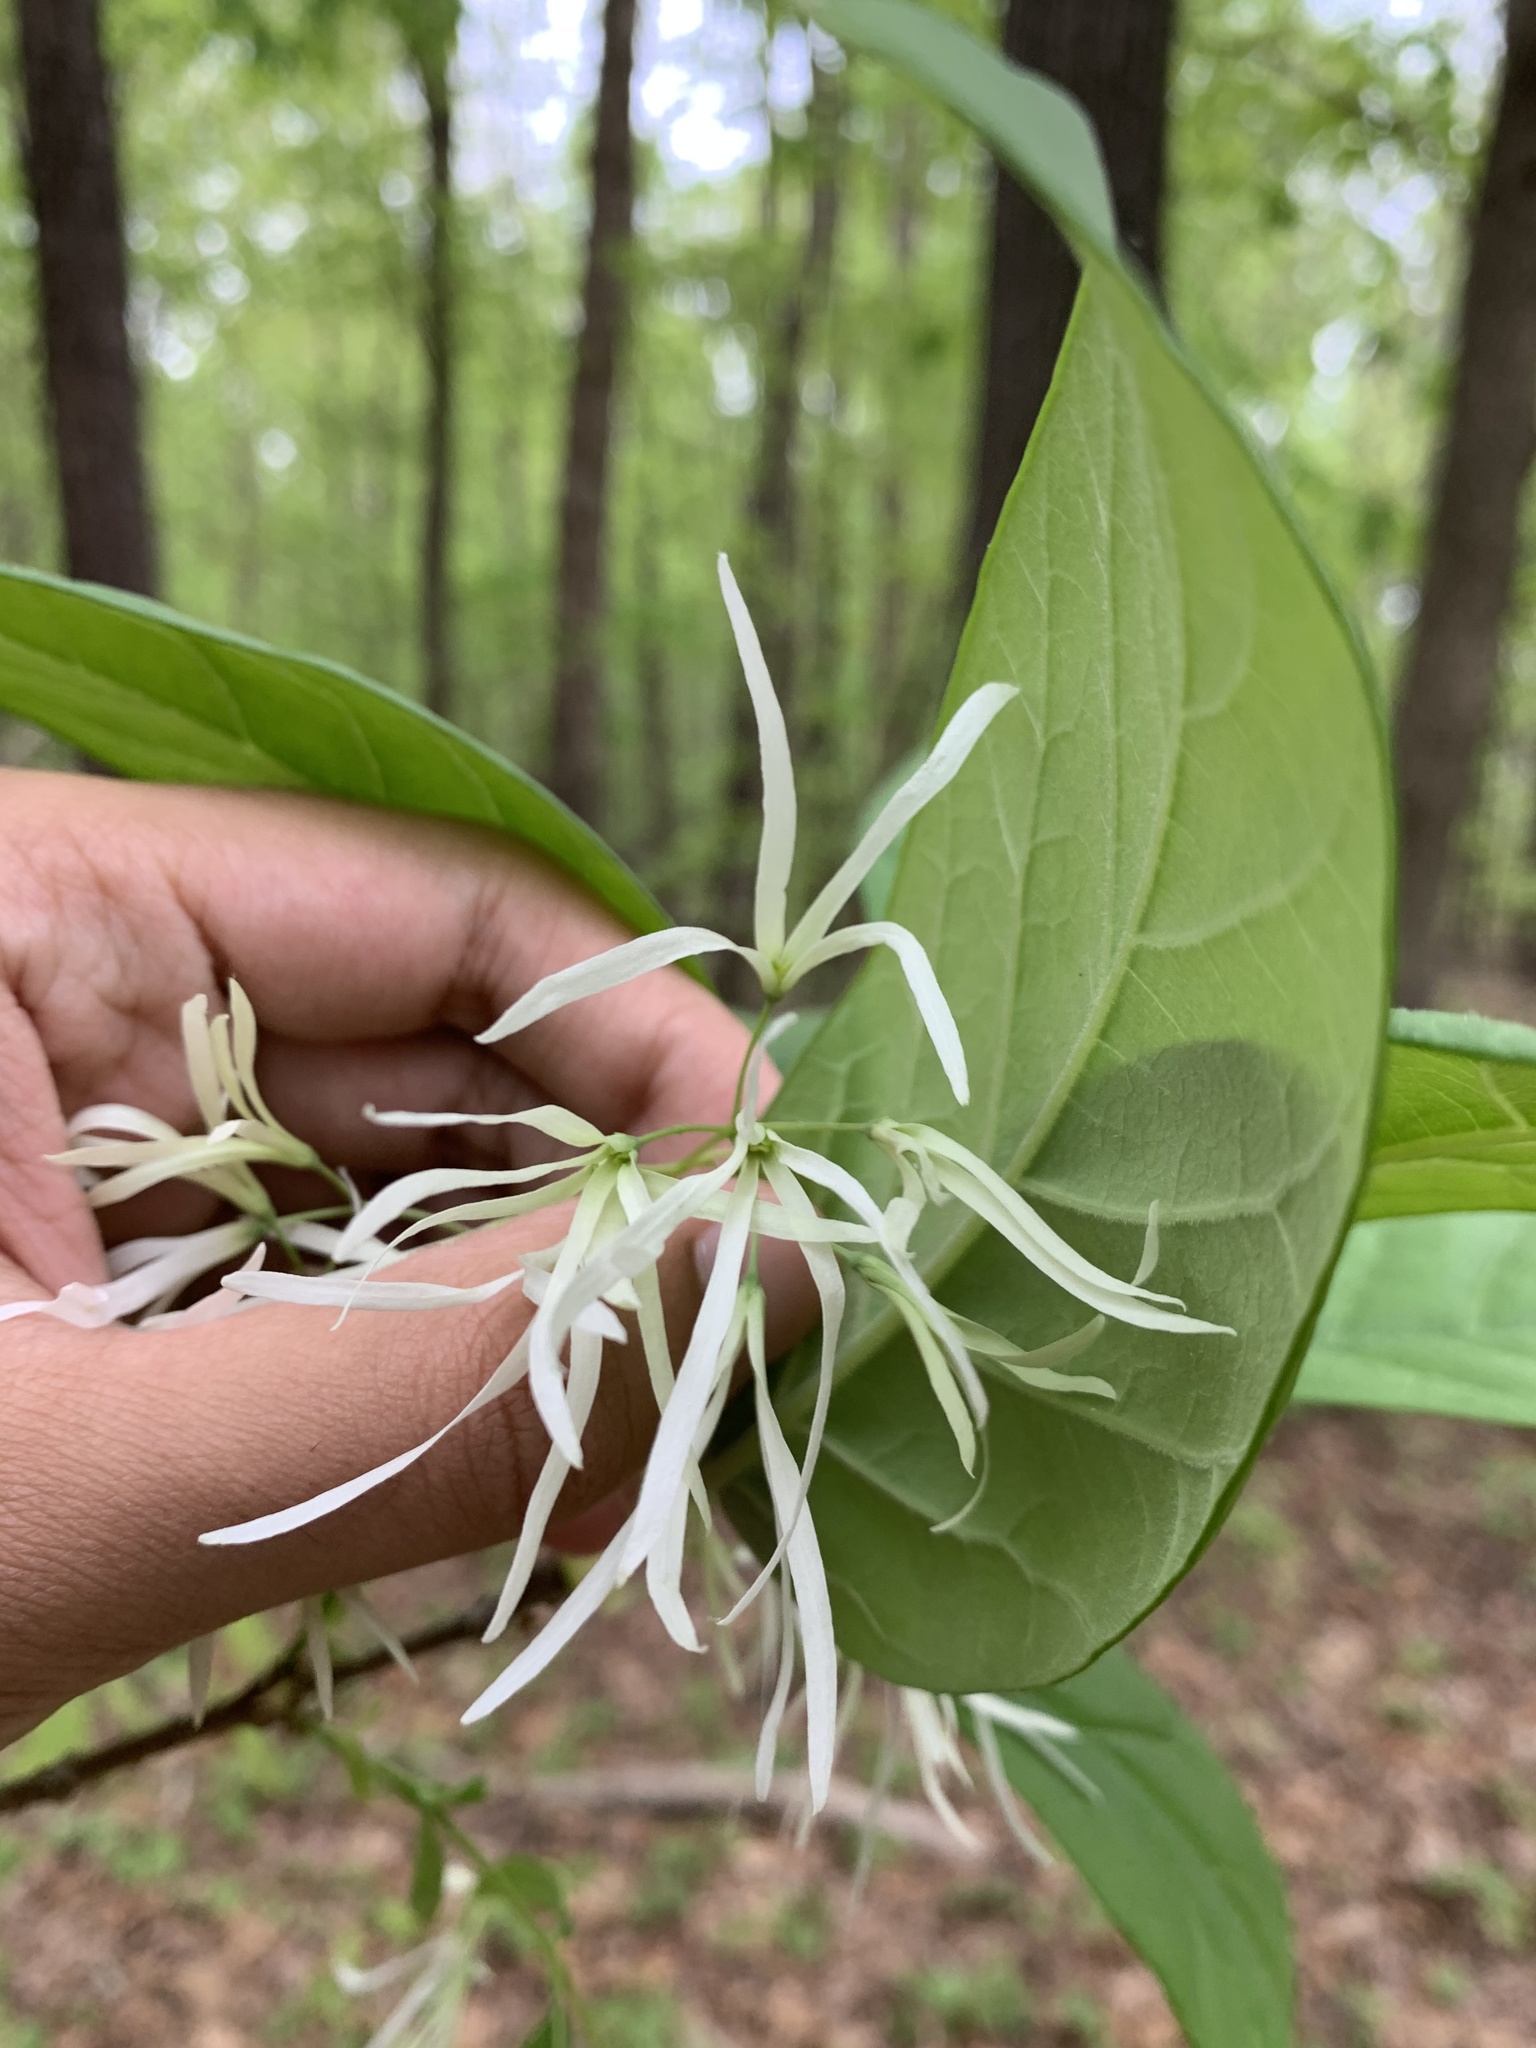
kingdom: Plantae
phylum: Tracheophyta
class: Magnoliopsida
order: Lamiales
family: Oleaceae
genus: Chionanthus
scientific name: Chionanthus virginicus
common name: American fringetree
